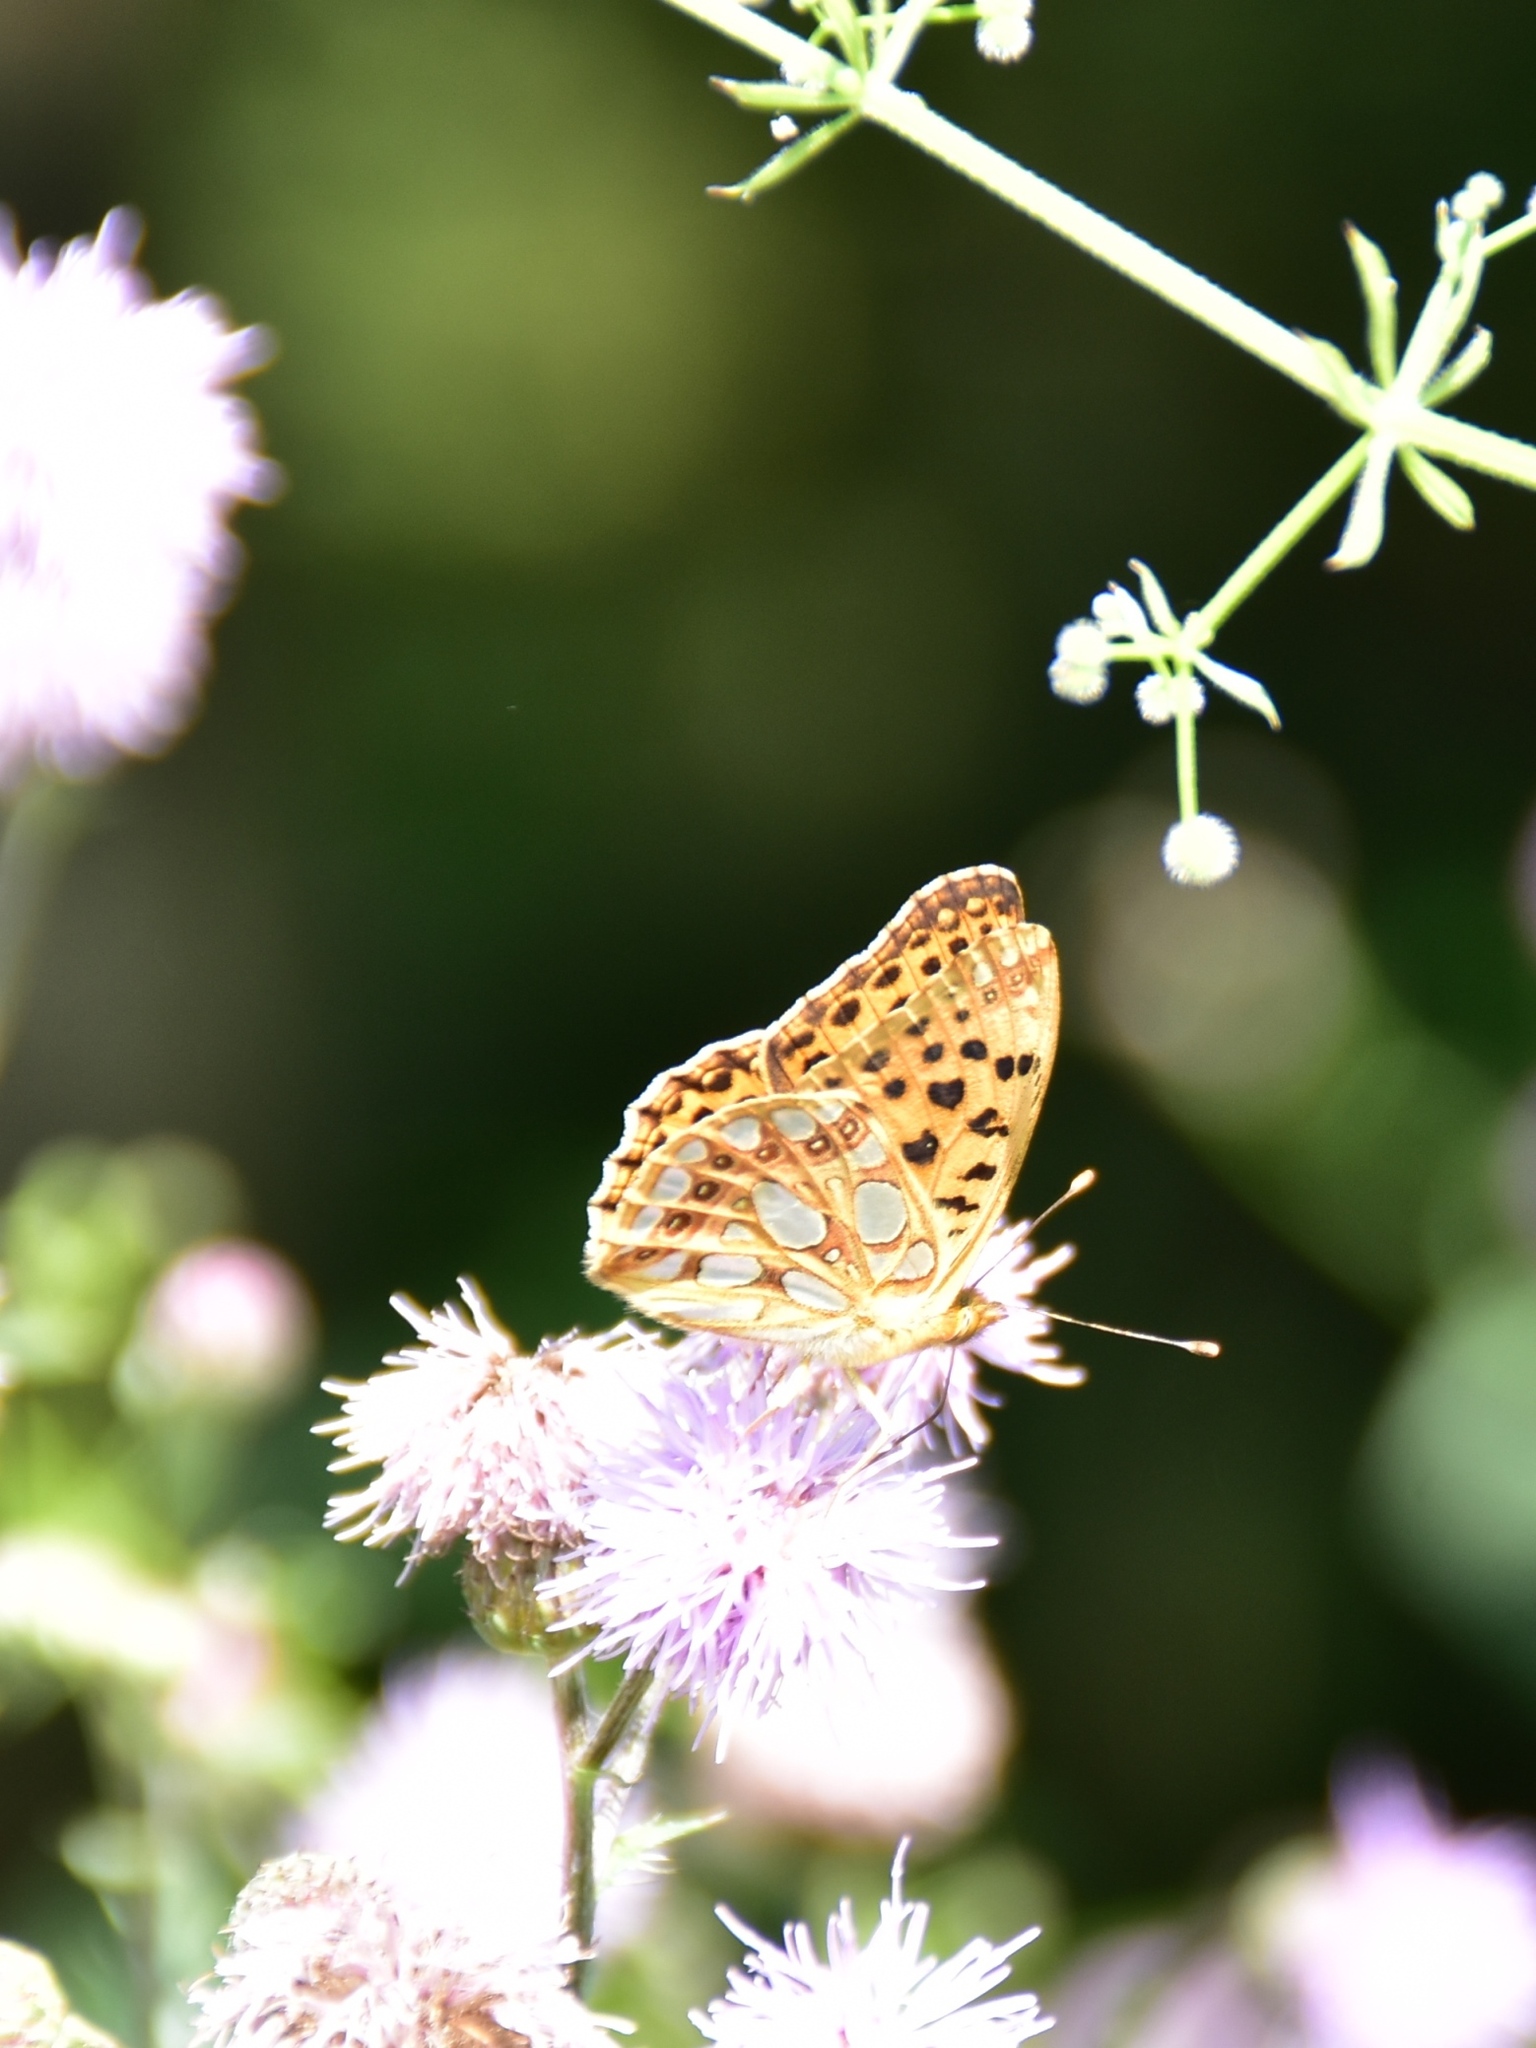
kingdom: Animalia
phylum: Arthropoda
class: Insecta
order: Lepidoptera
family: Nymphalidae
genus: Issoria
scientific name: Issoria lathonia
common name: Queen of spain fritillary
